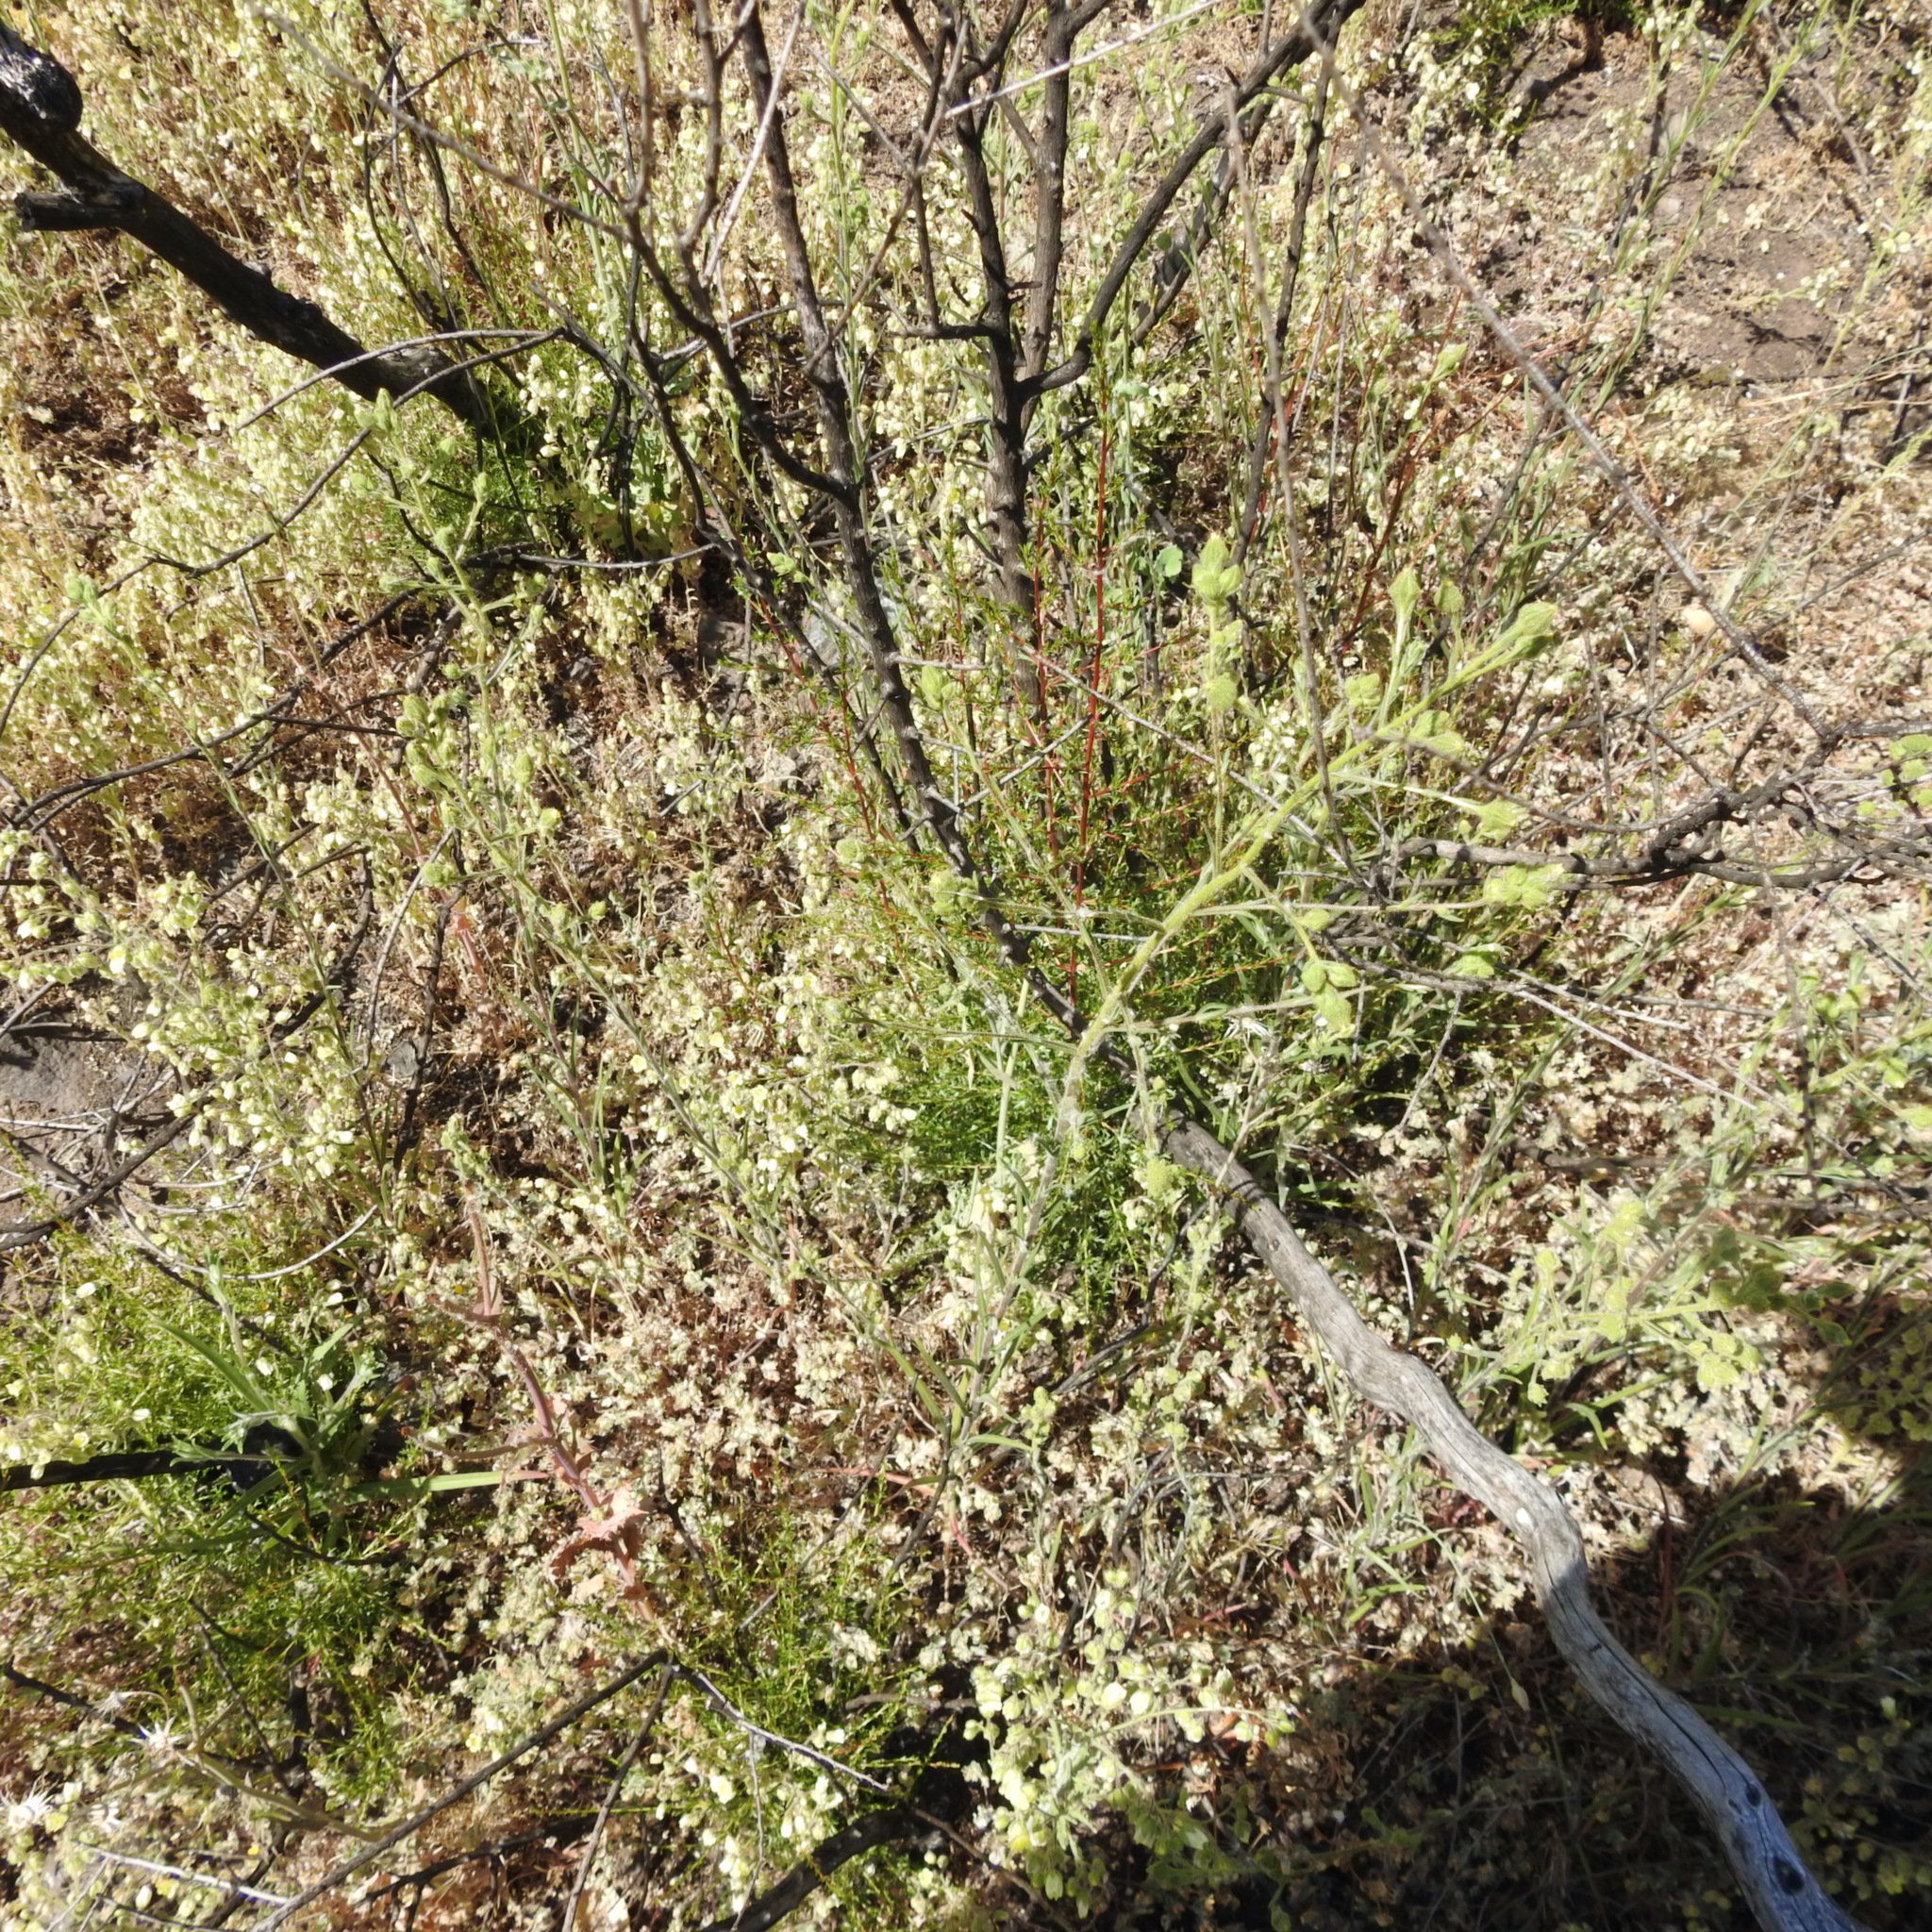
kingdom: Plantae
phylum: Tracheophyta
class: Magnoliopsida
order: Rosales
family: Rosaceae
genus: Adenostoma
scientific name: Adenostoma fasciculatum
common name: Chamise
